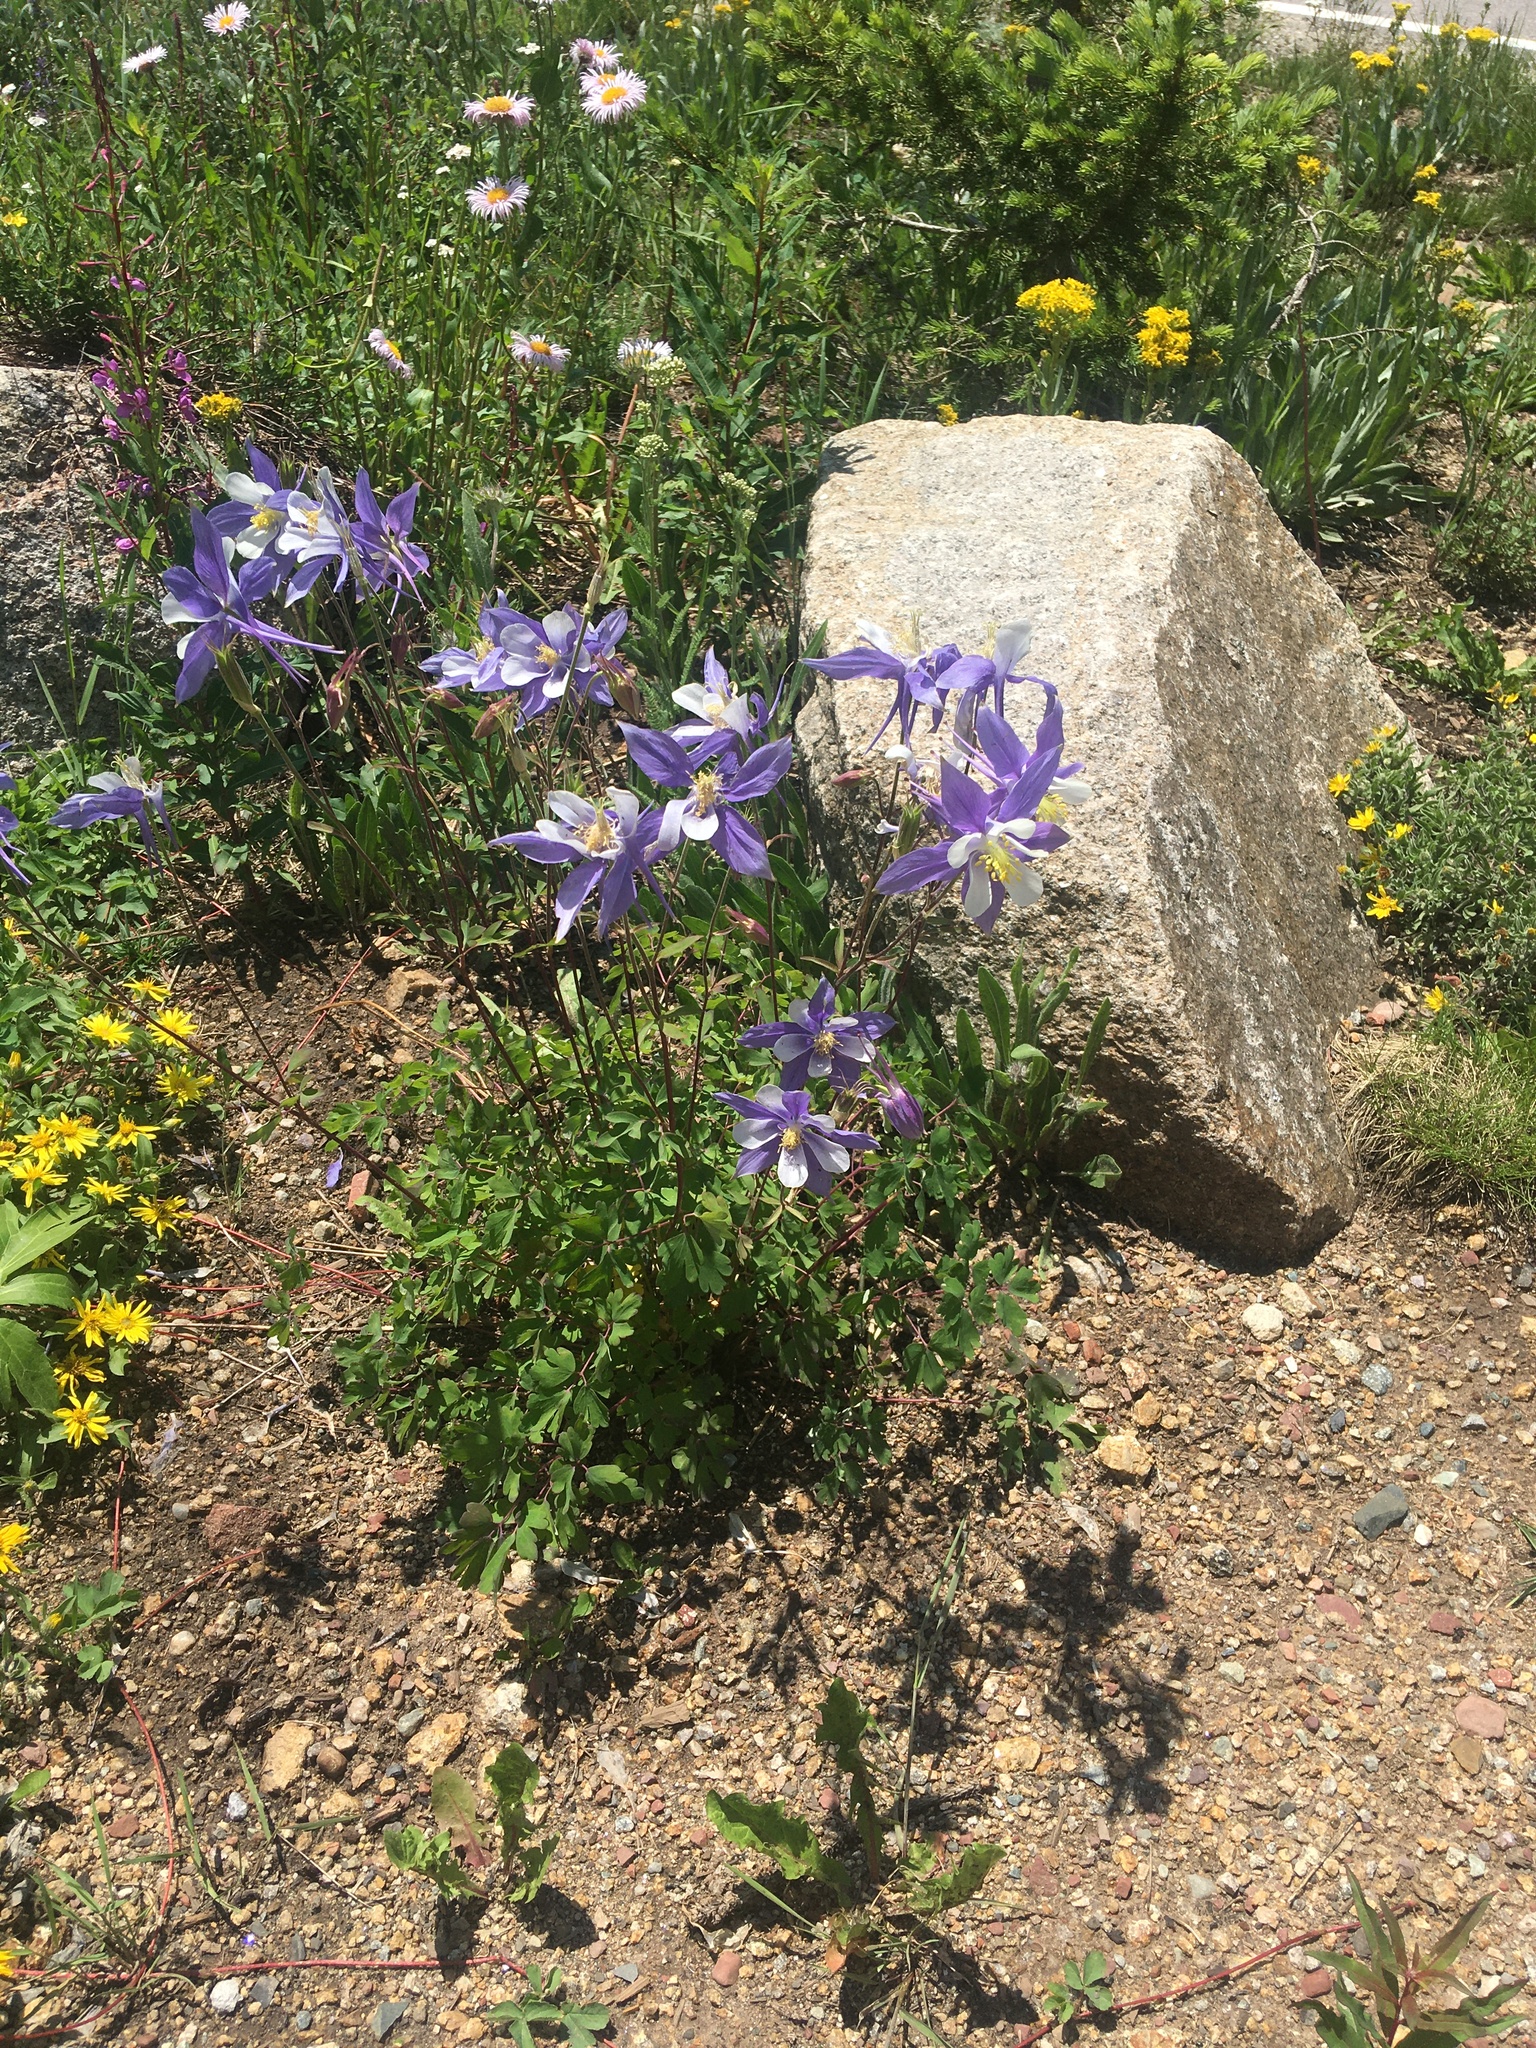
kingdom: Plantae
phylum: Tracheophyta
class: Magnoliopsida
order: Ranunculales
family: Ranunculaceae
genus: Aquilegia
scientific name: Aquilegia coerulea
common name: Rocky mountain columbine
